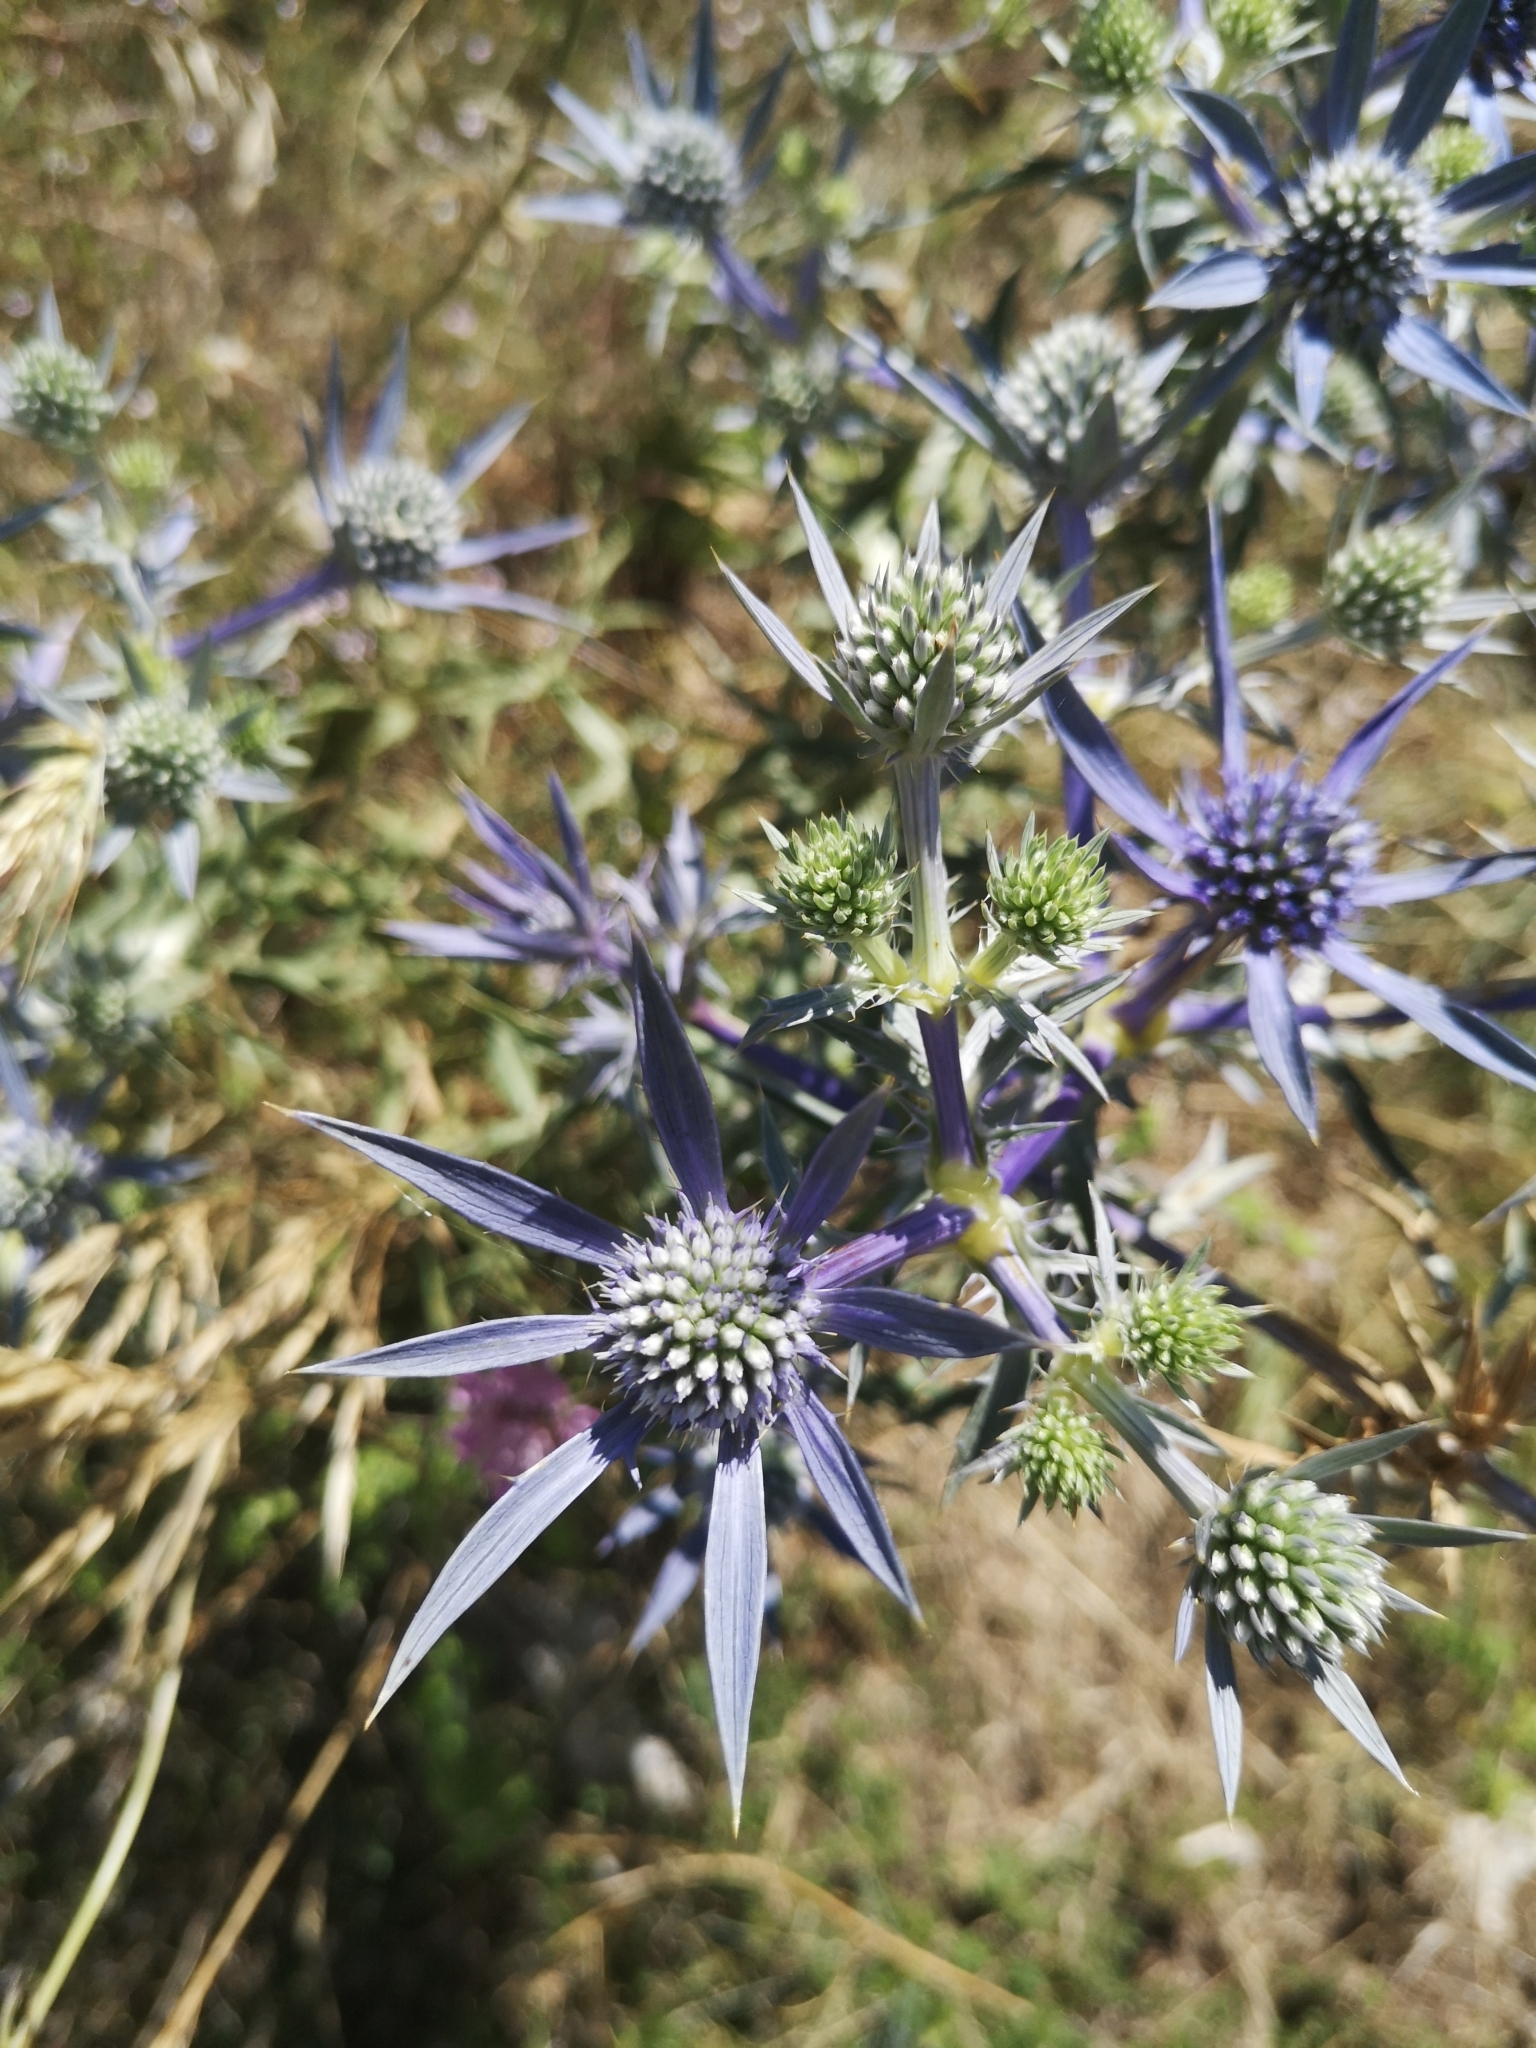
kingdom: Plantae
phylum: Tracheophyta
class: Magnoliopsida
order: Apiales
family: Apiaceae
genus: Eryngium
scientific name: Eryngium amethystinum
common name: Amethyst eryngo
